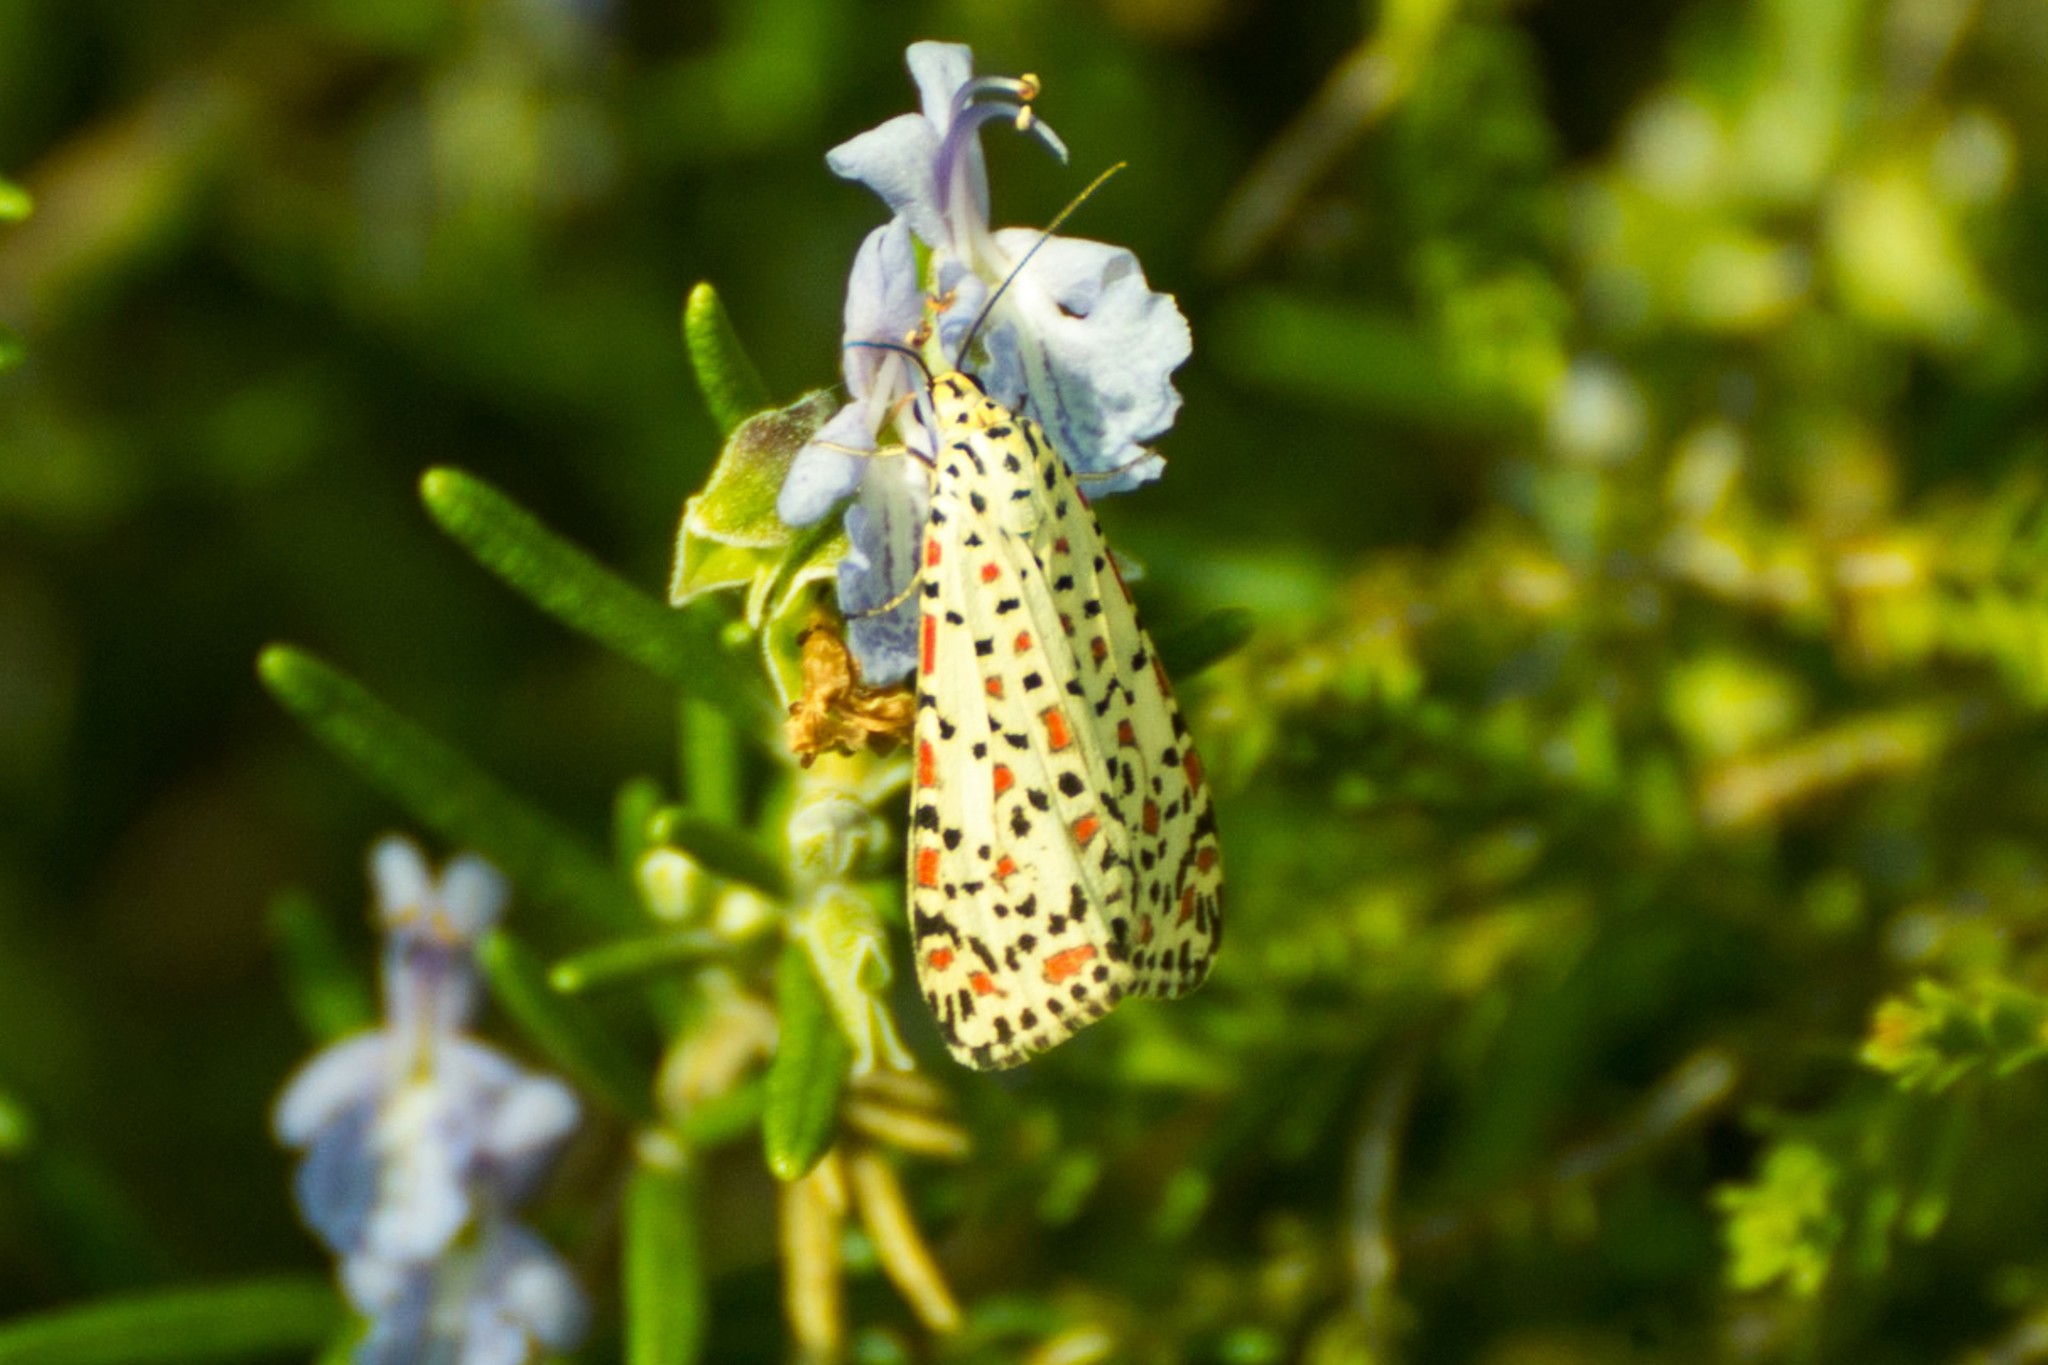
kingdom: Animalia
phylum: Arthropoda
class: Insecta
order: Lepidoptera
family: Erebidae
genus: Utetheisa
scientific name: Utetheisa pulchelloides
